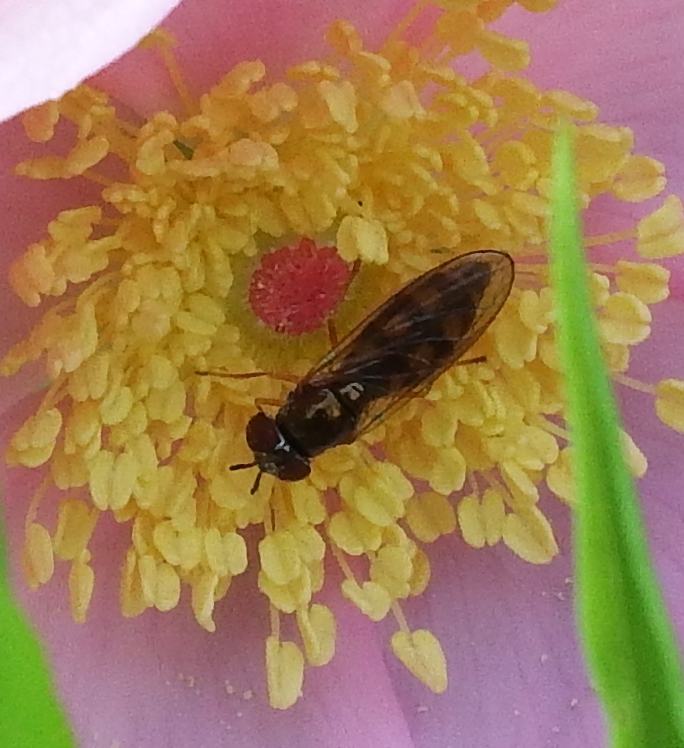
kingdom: Animalia
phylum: Arthropoda
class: Insecta
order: Diptera
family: Syrphidae
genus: Melanostoma
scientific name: Melanostoma mellina
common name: Hover fly
